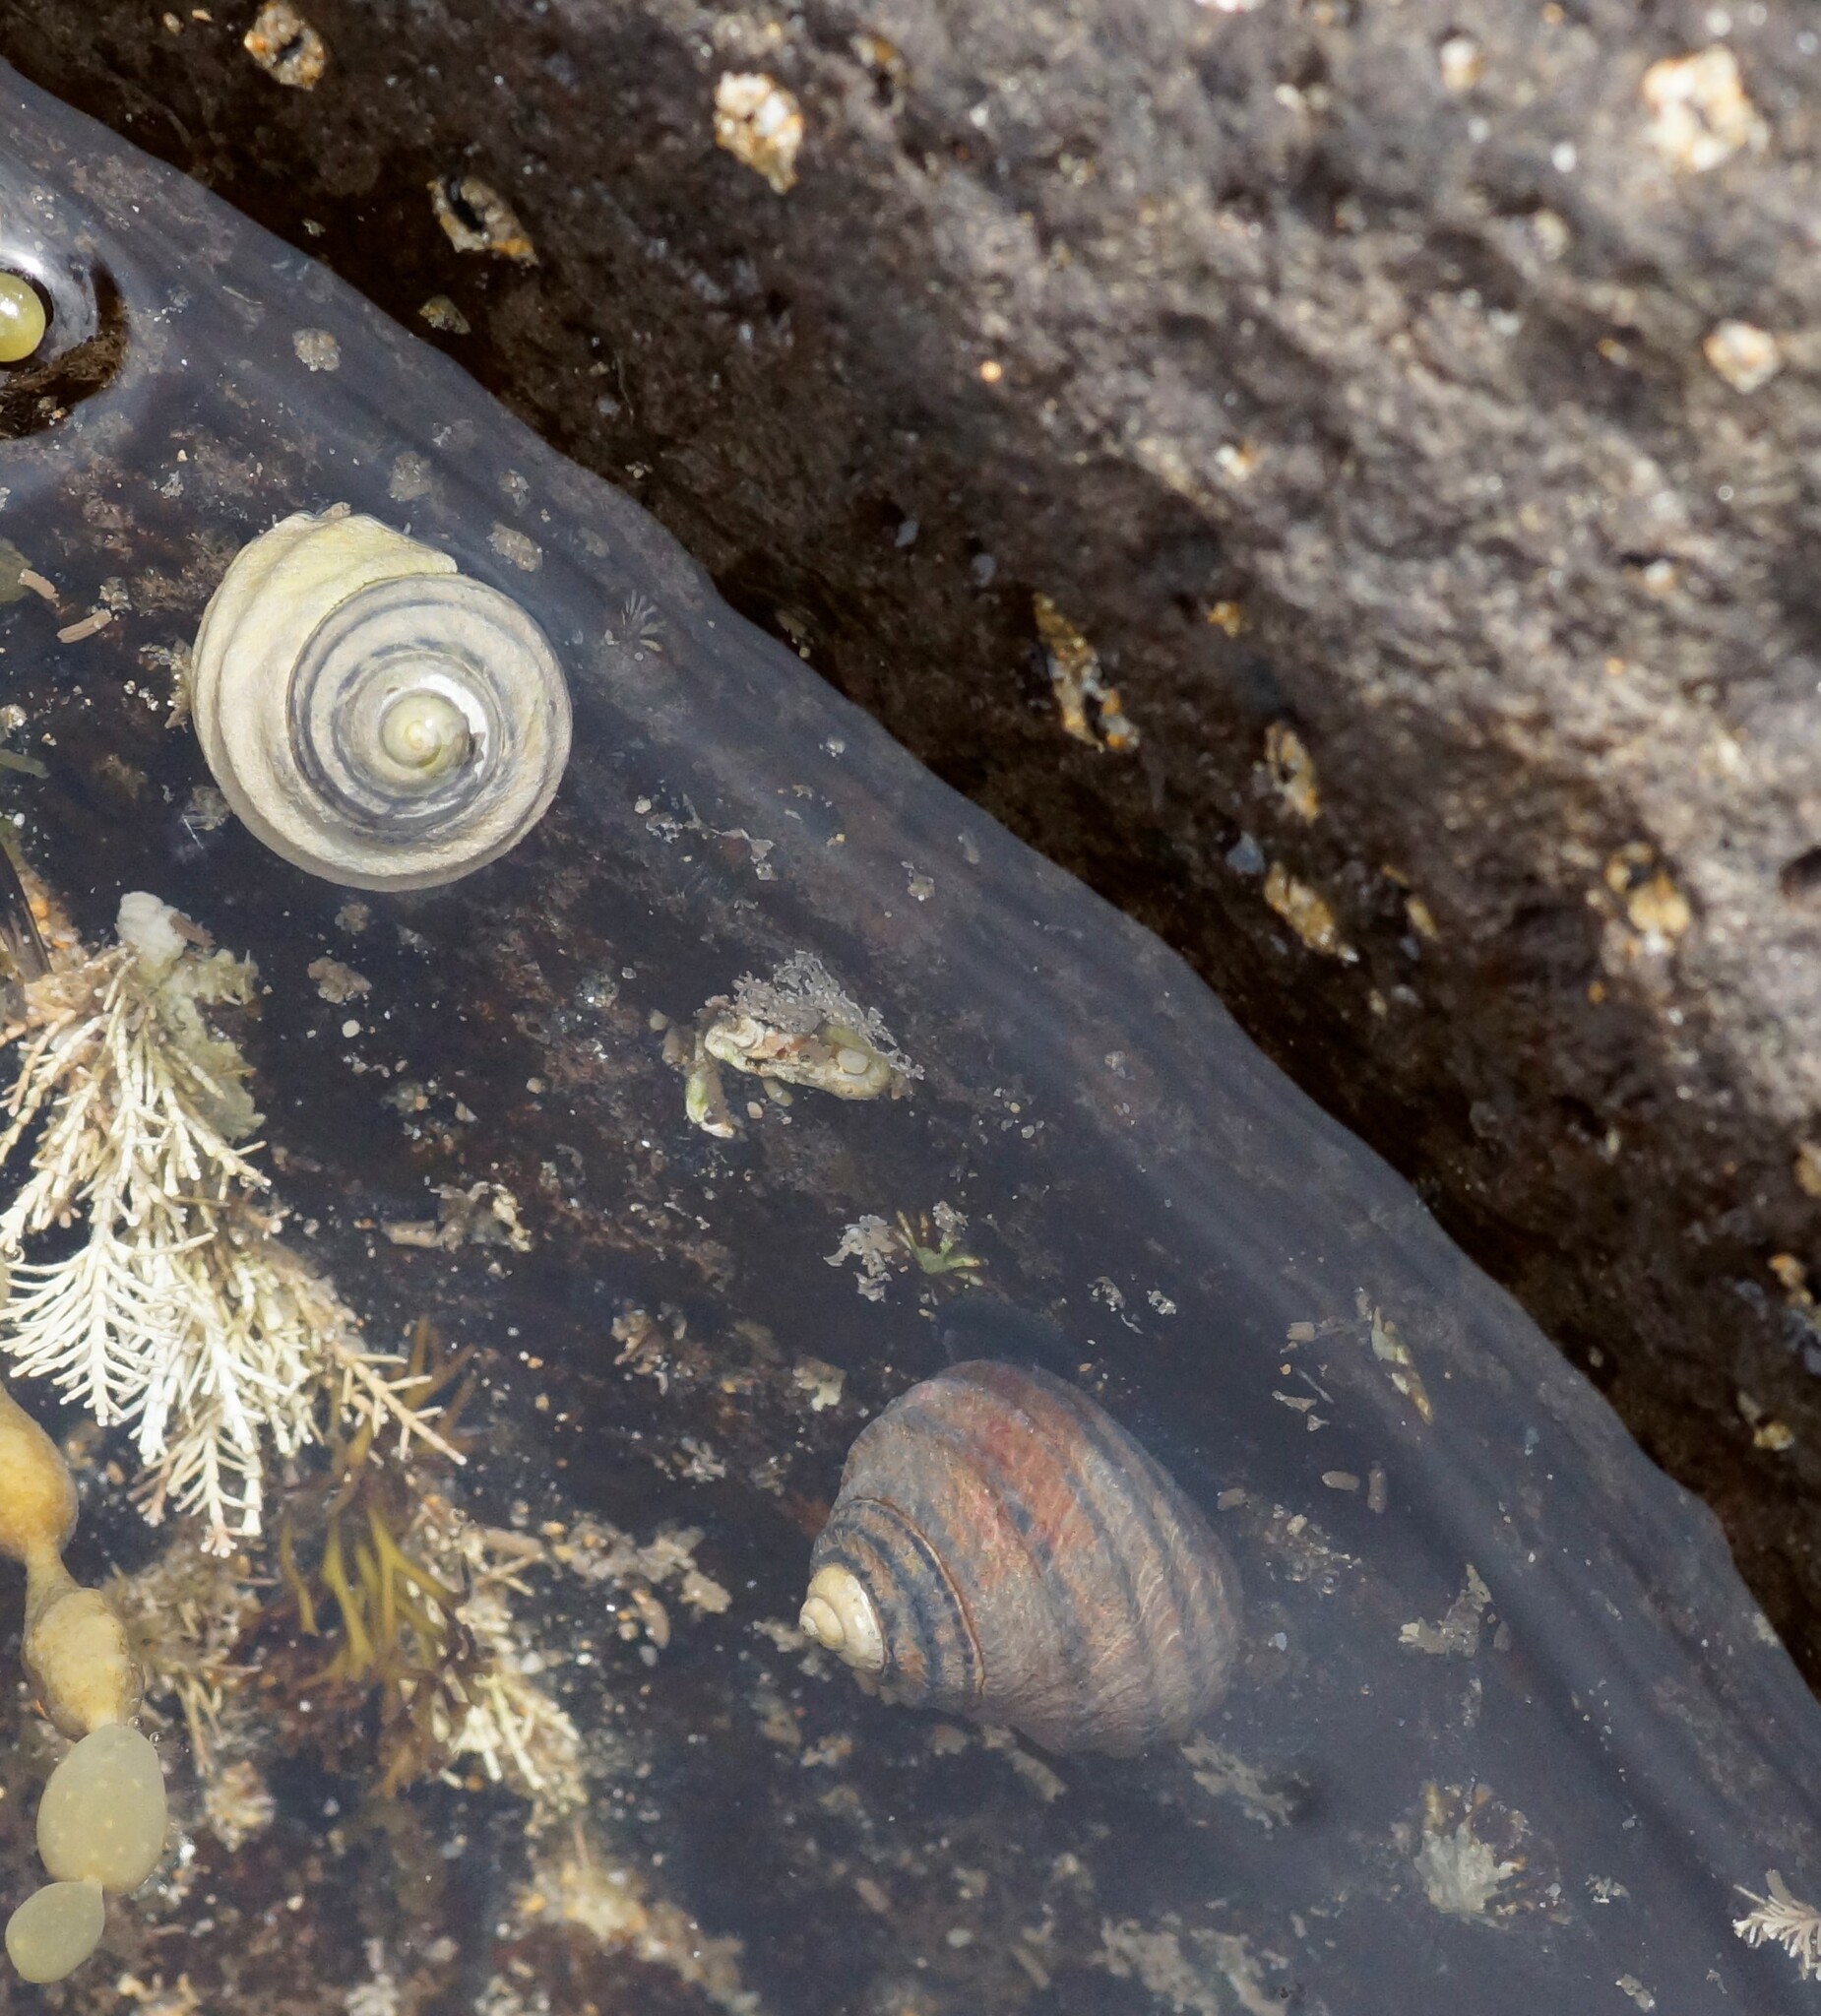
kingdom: Animalia
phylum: Mollusca
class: Gastropoda
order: Trochida
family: Trochidae
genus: Austrocochlea
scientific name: Austrocochlea constricta
